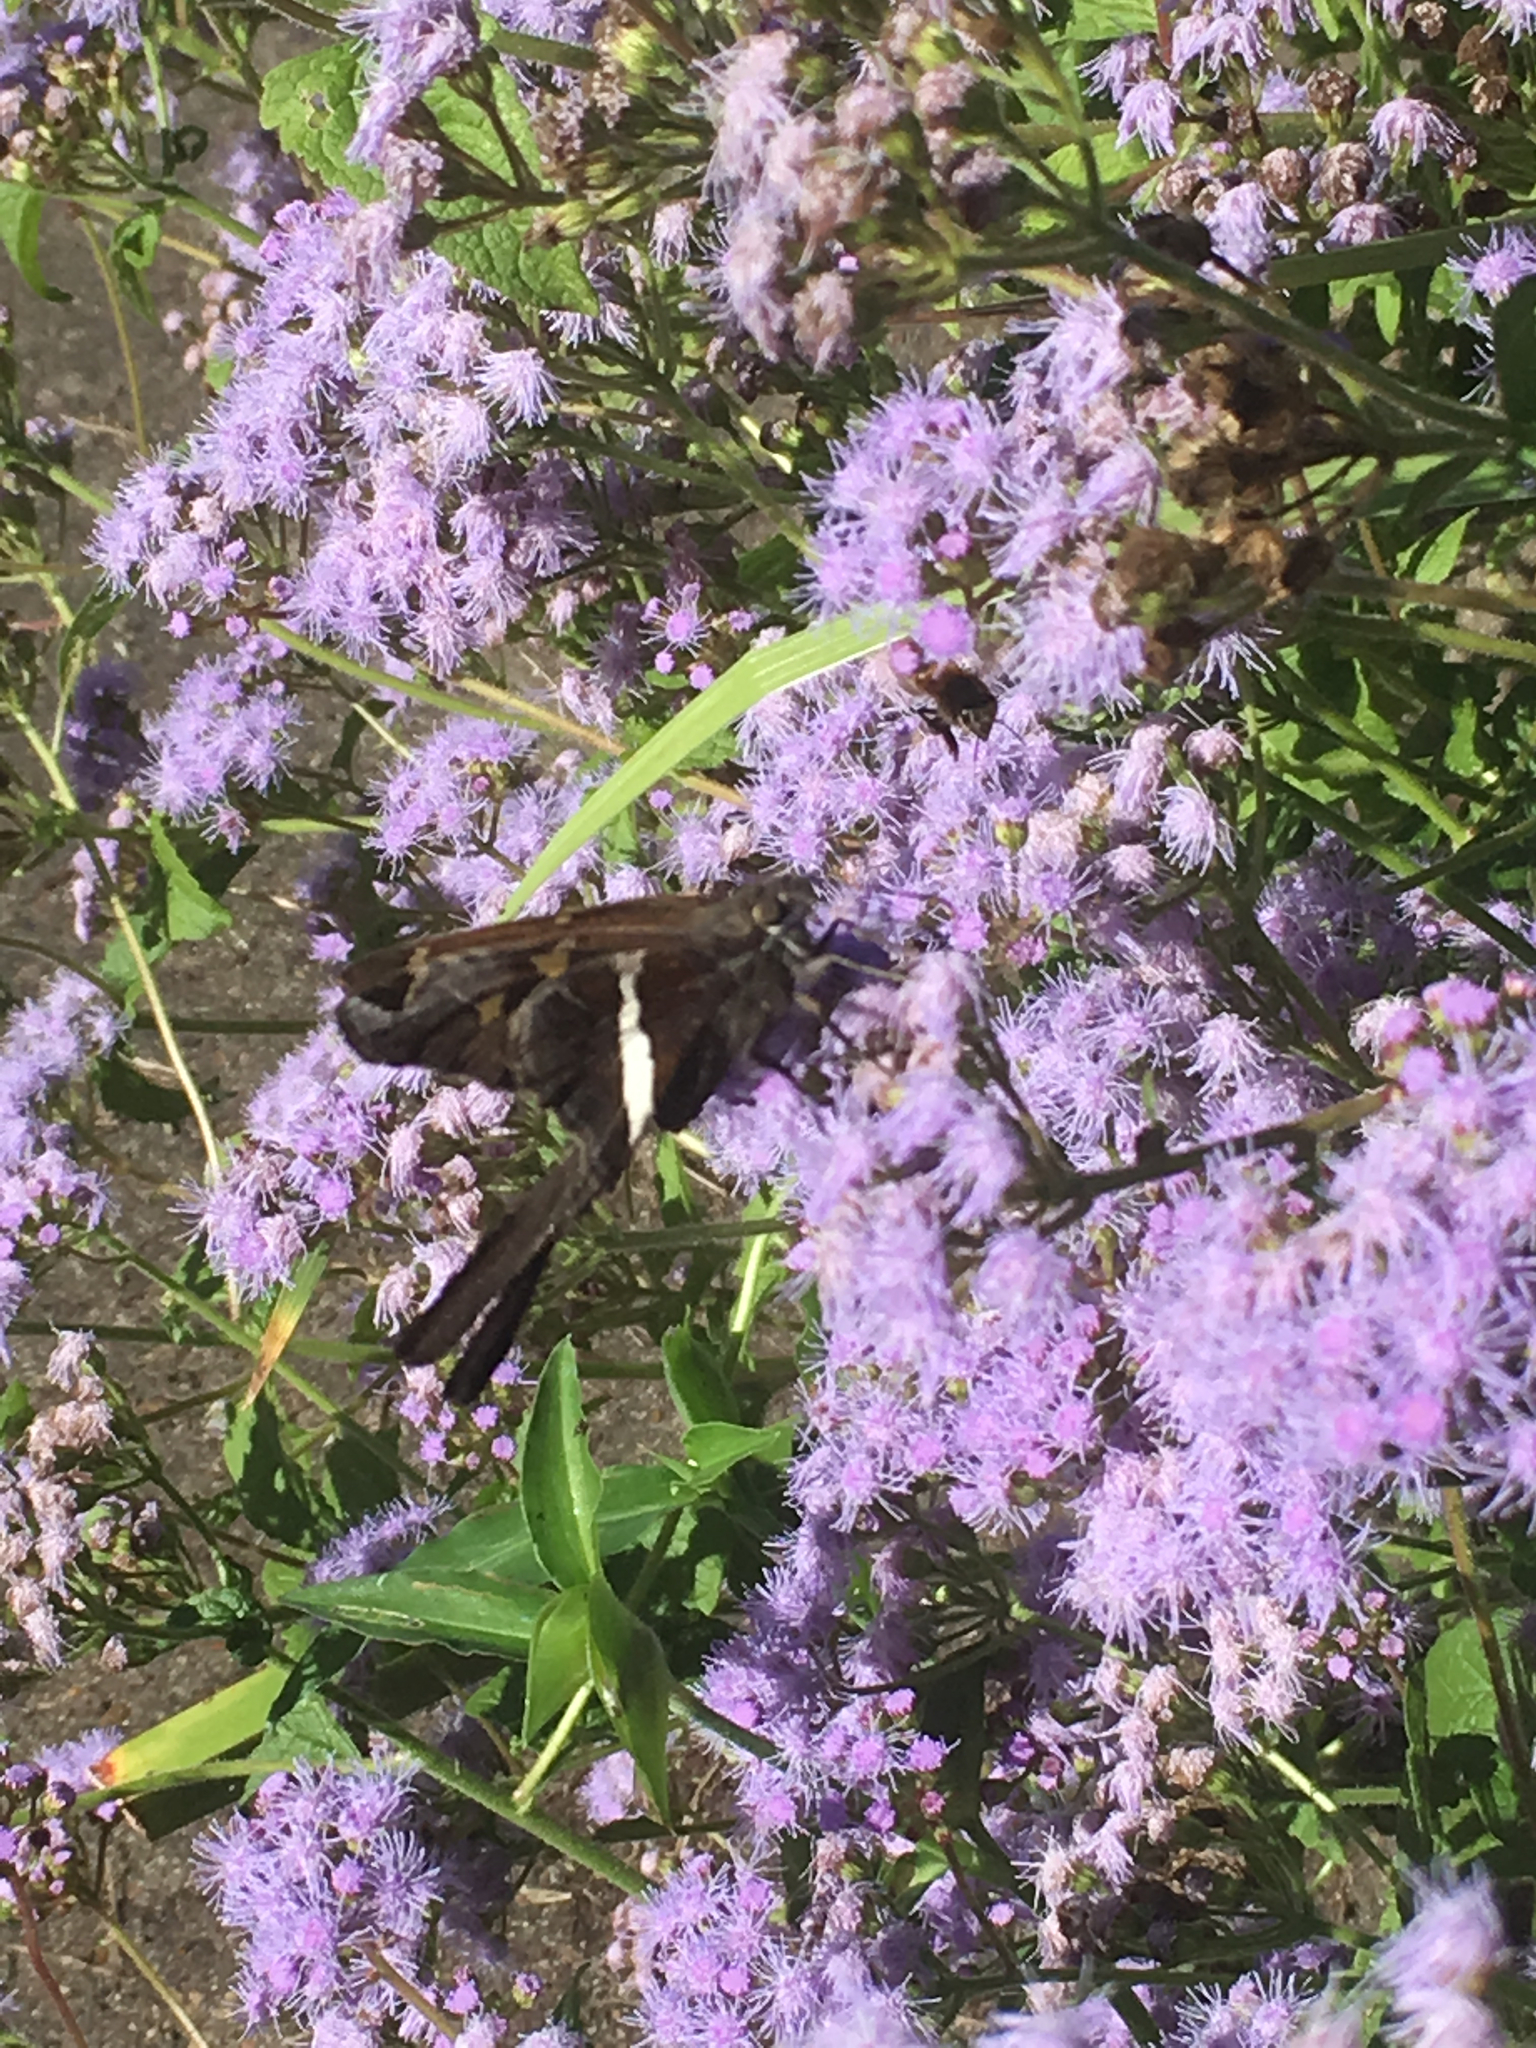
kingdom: Animalia
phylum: Arthropoda
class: Insecta
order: Lepidoptera
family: Hesperiidae
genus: Chioides
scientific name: Chioides catillus
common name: Silverbanded skipper
